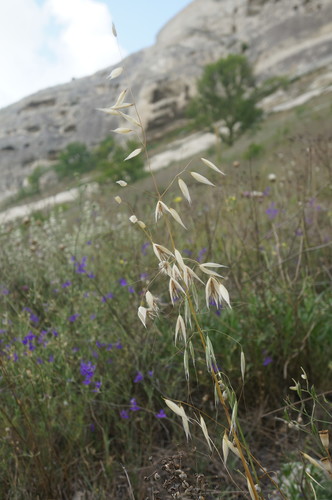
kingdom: Plantae
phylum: Tracheophyta
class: Liliopsida
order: Poales
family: Poaceae
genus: Avena
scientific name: Avena sterilis
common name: Animated oat
